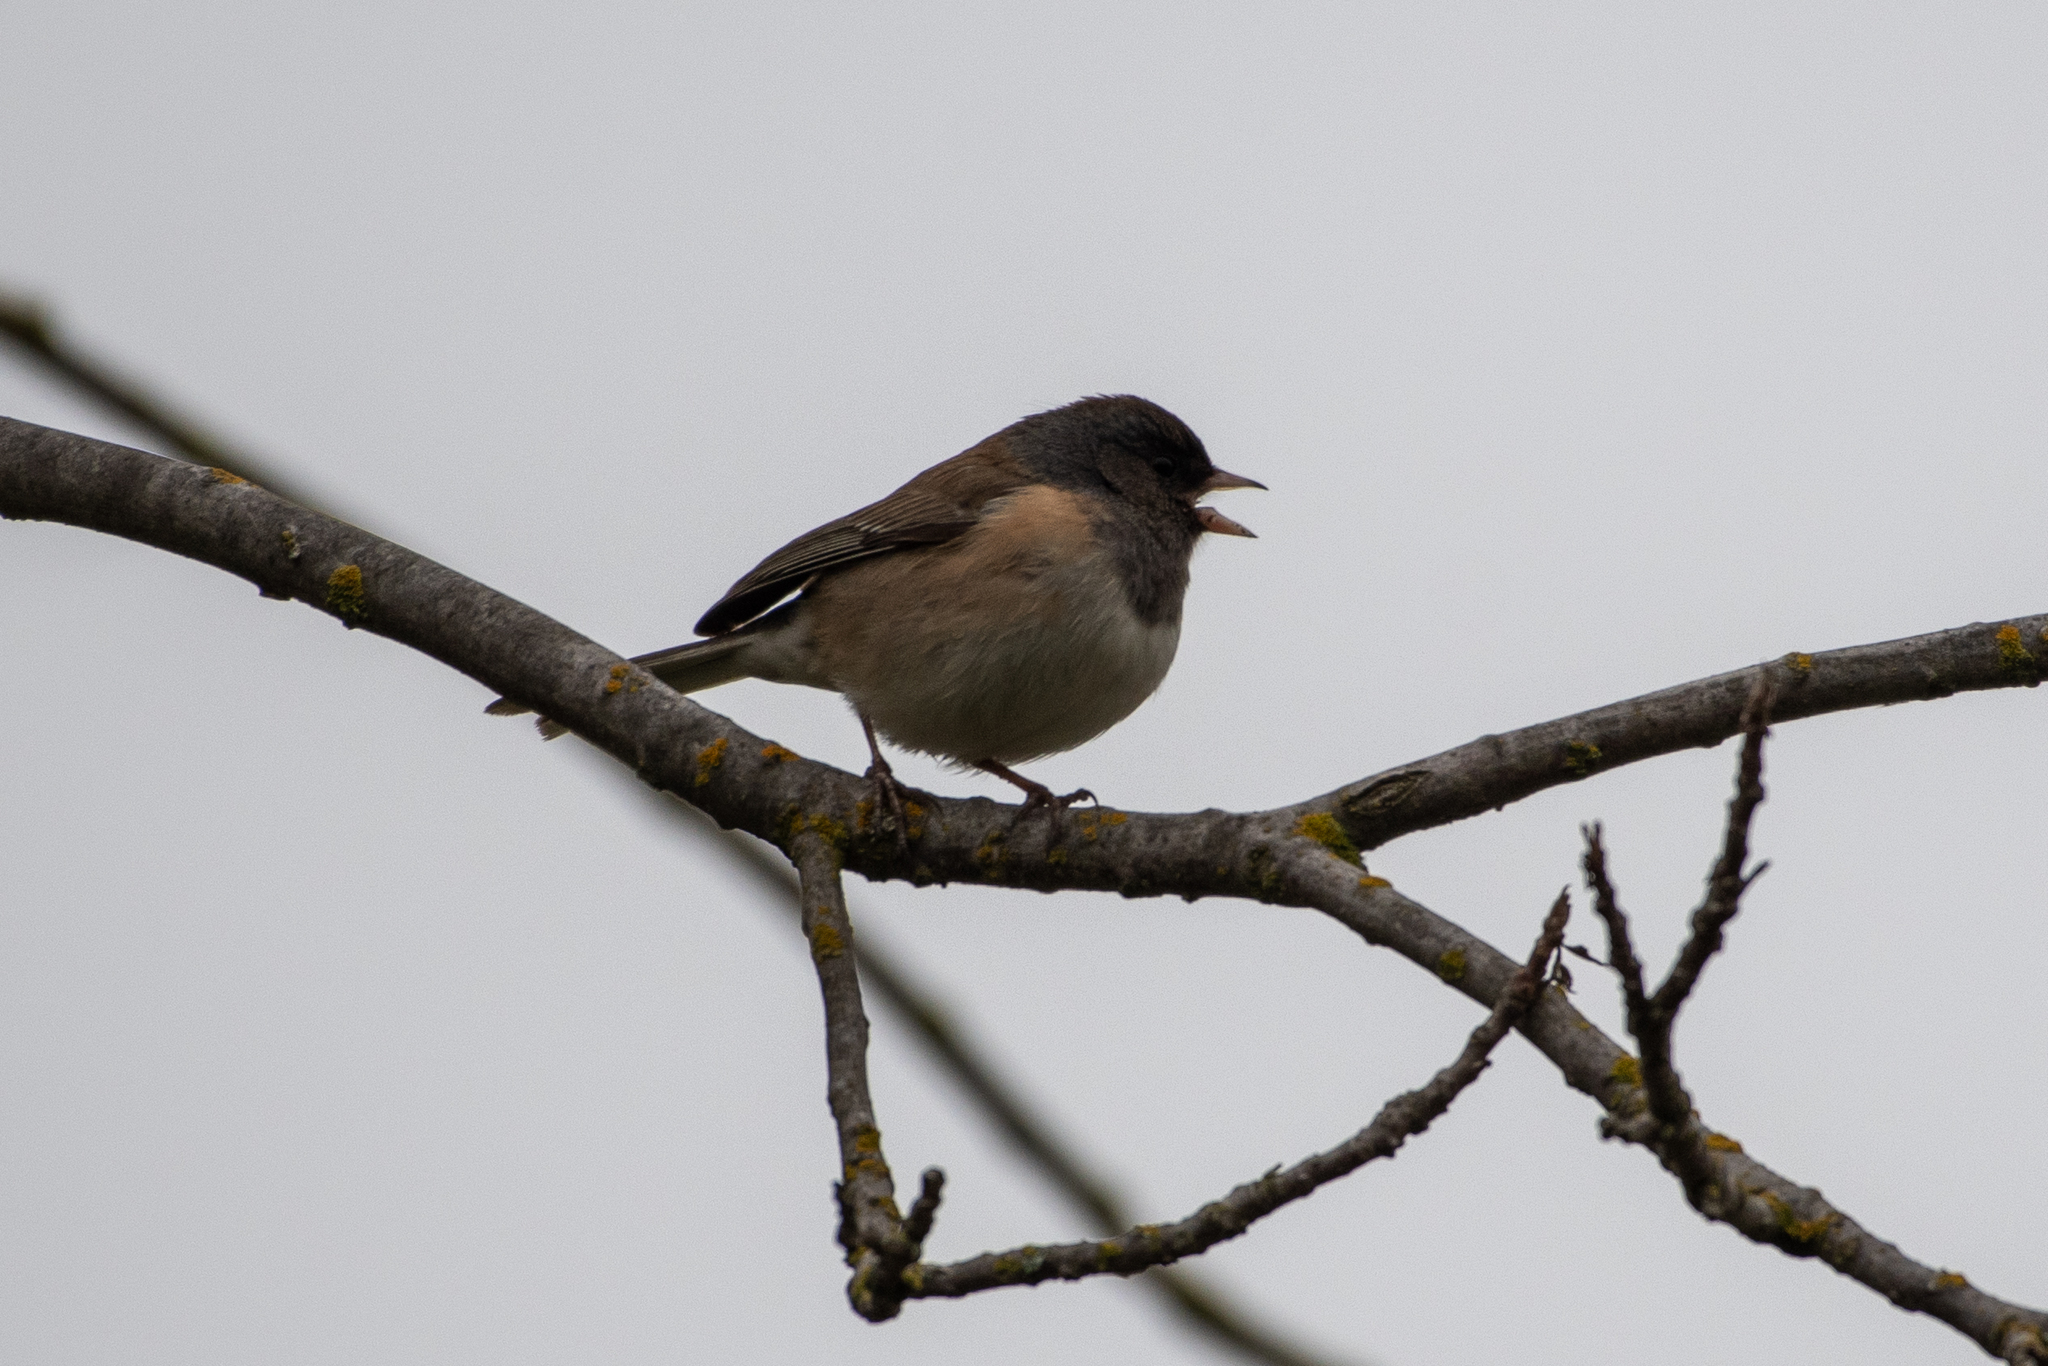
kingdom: Animalia
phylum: Chordata
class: Aves
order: Passeriformes
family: Passerellidae
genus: Junco
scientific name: Junco hyemalis
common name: Dark-eyed junco
